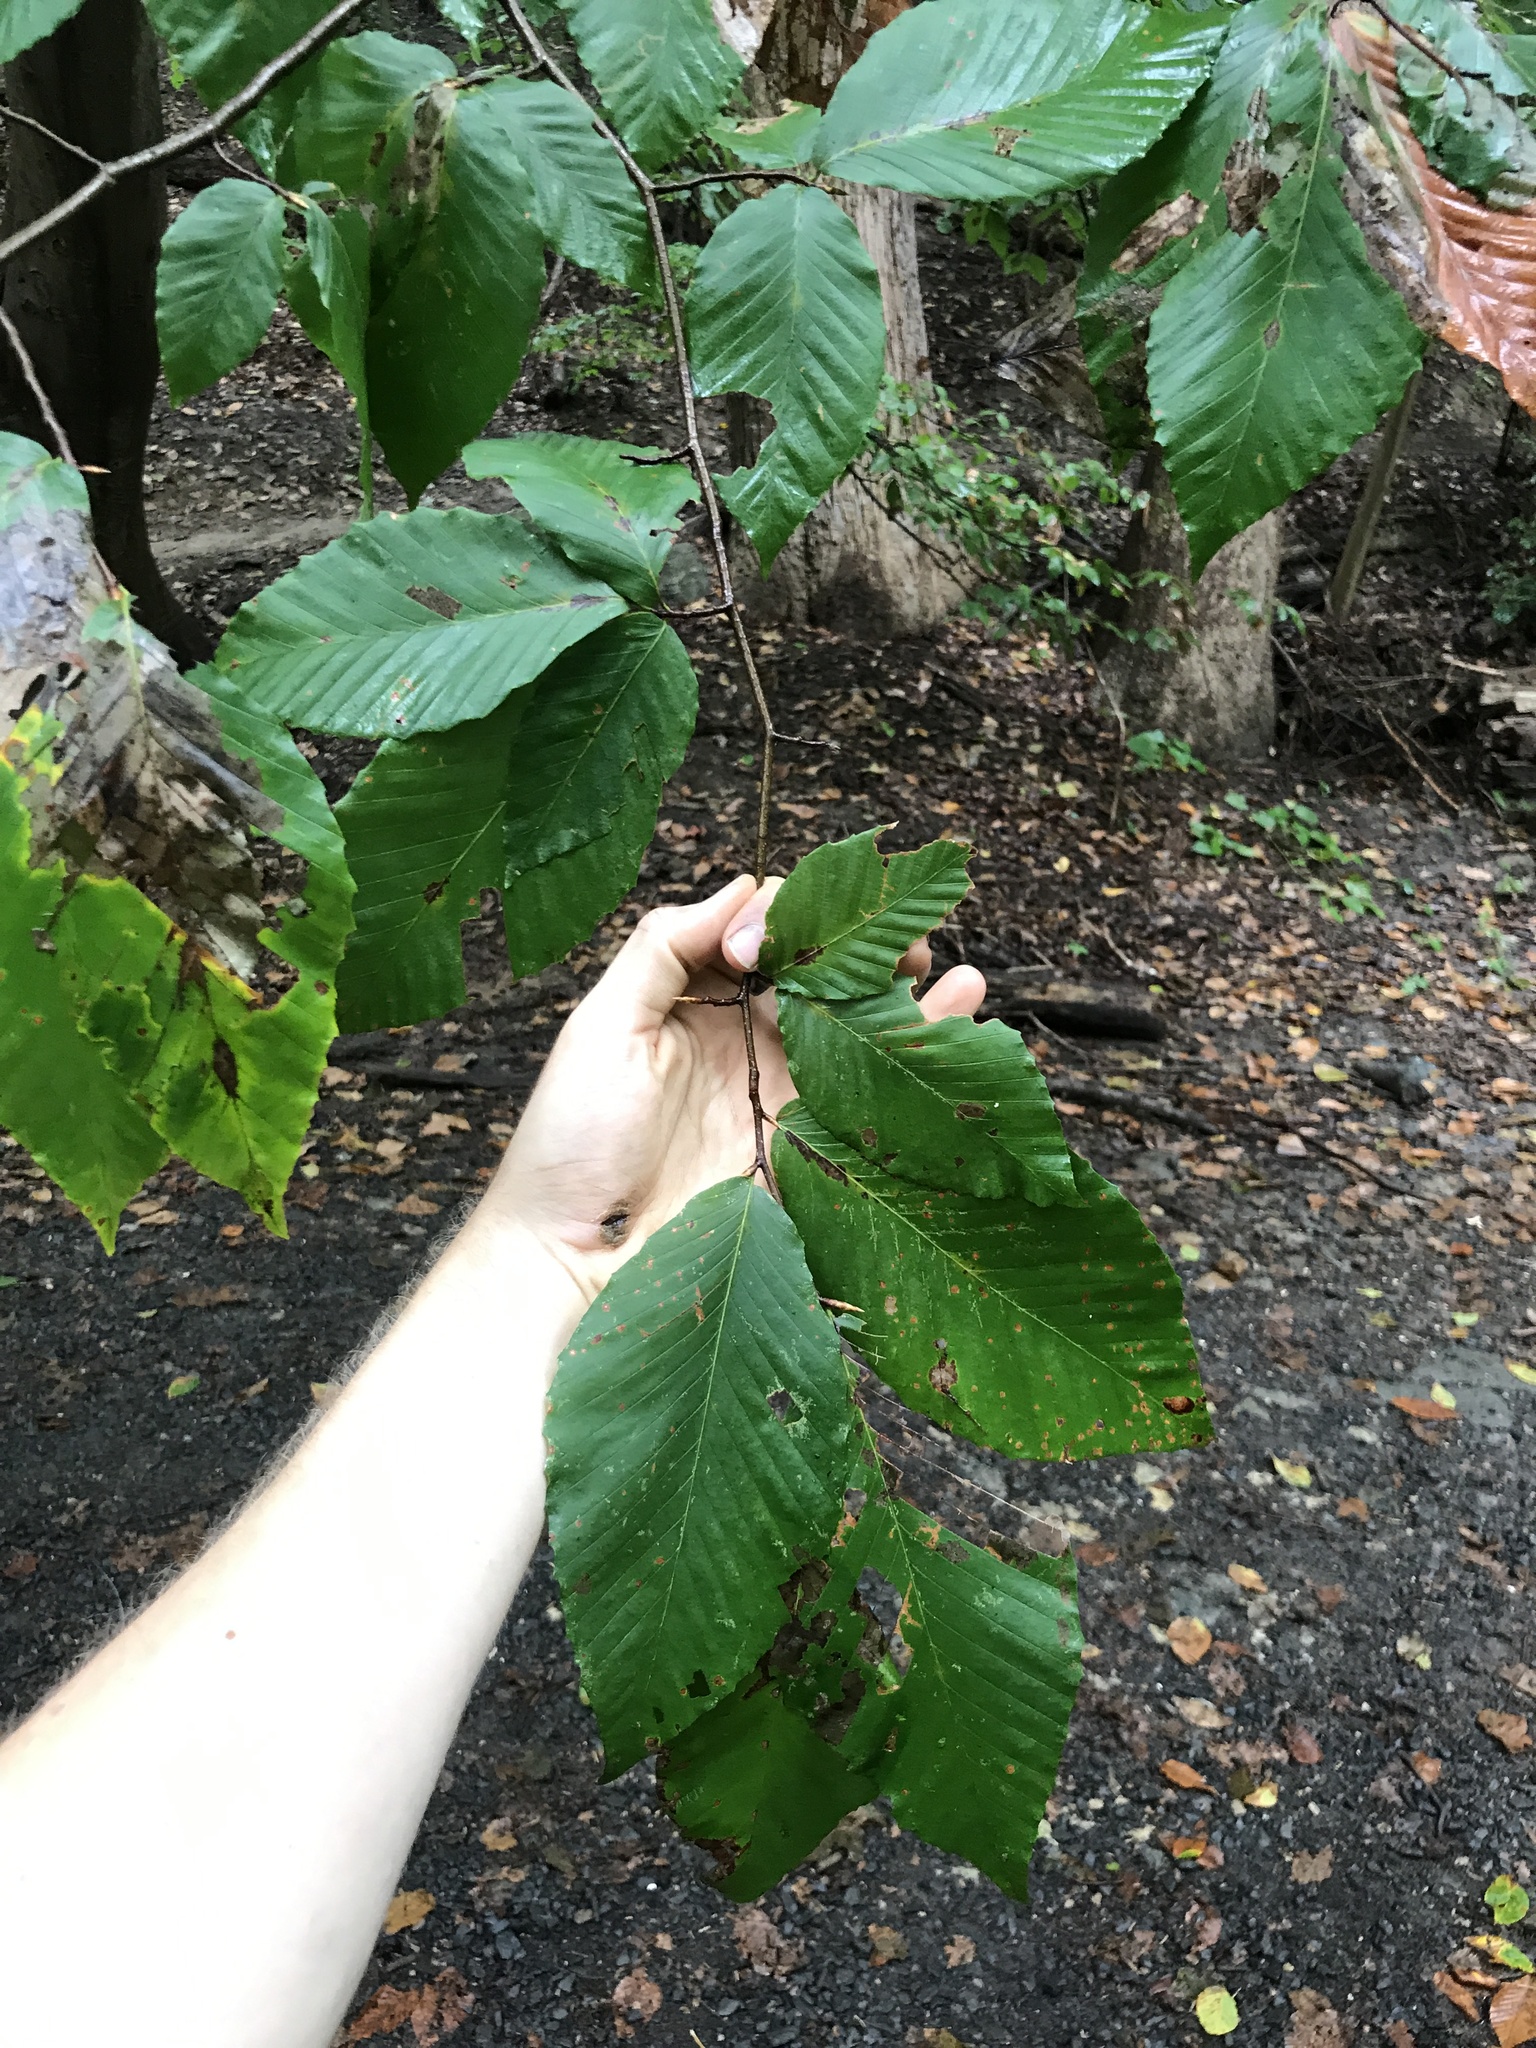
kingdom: Plantae
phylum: Tracheophyta
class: Magnoliopsida
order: Fagales
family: Fagaceae
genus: Fagus
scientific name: Fagus grandifolia
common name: American beech
